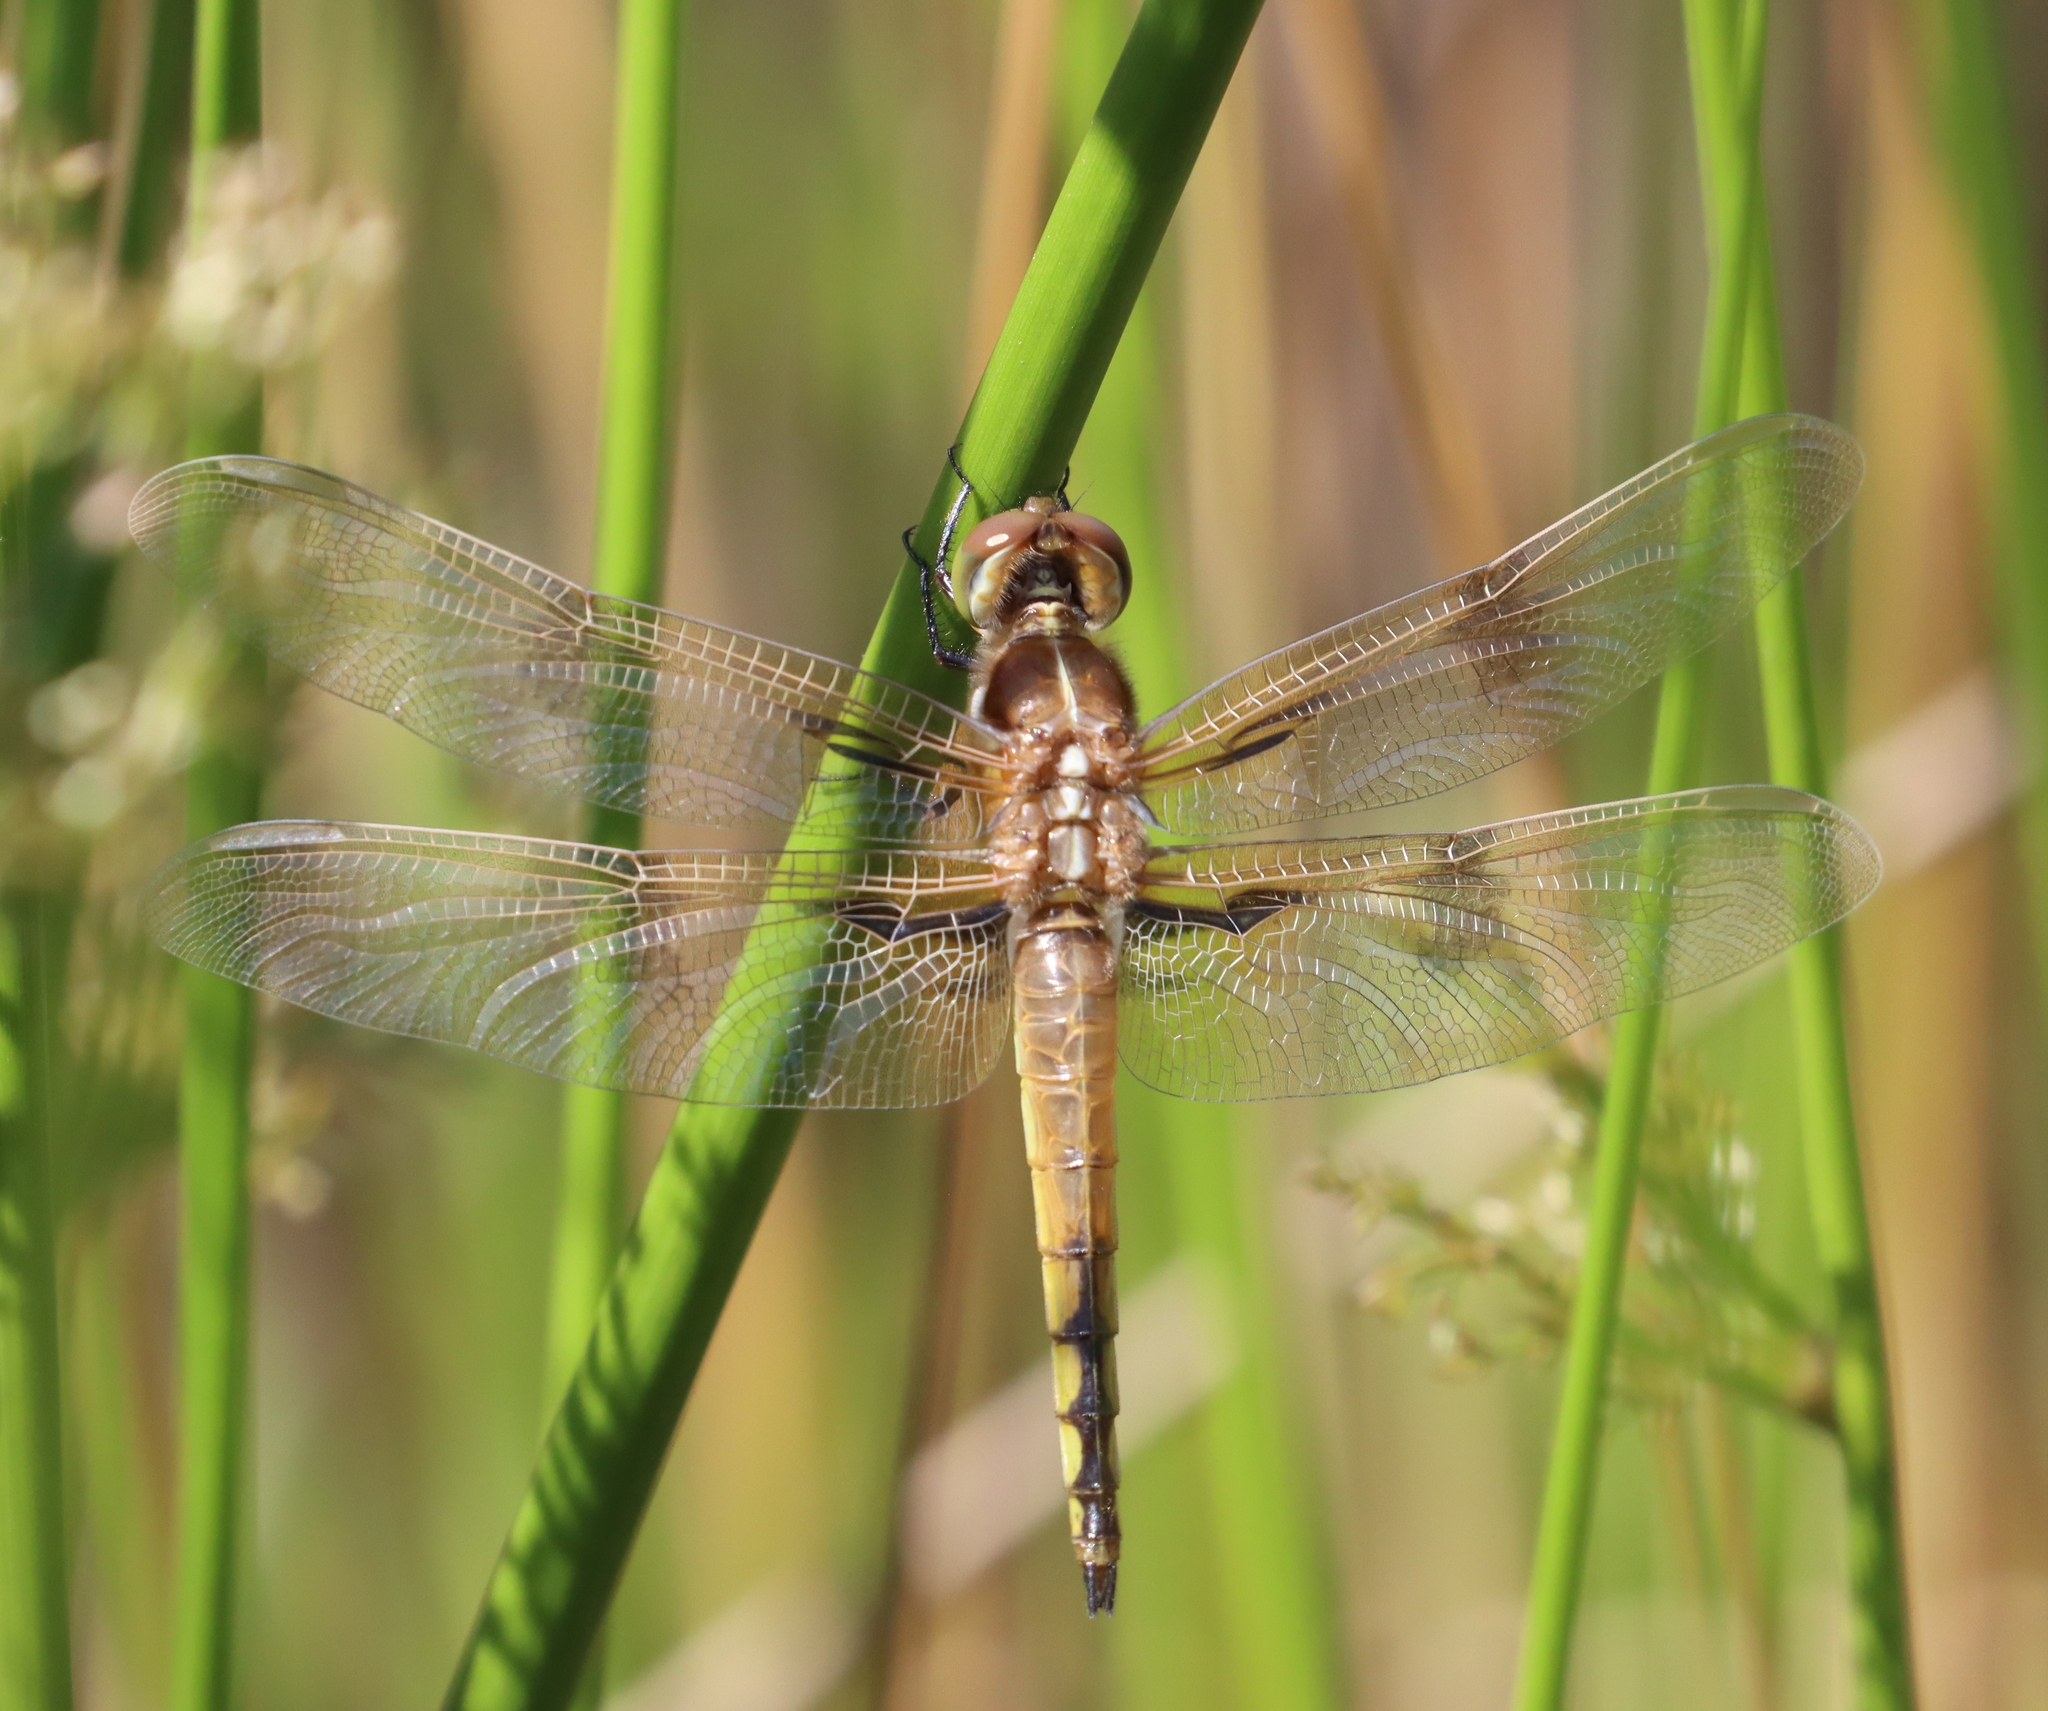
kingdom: Animalia
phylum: Arthropoda
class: Insecta
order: Odonata
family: Libellulidae
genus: Libellula
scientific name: Libellula semifasciata
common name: Painted skimmer
